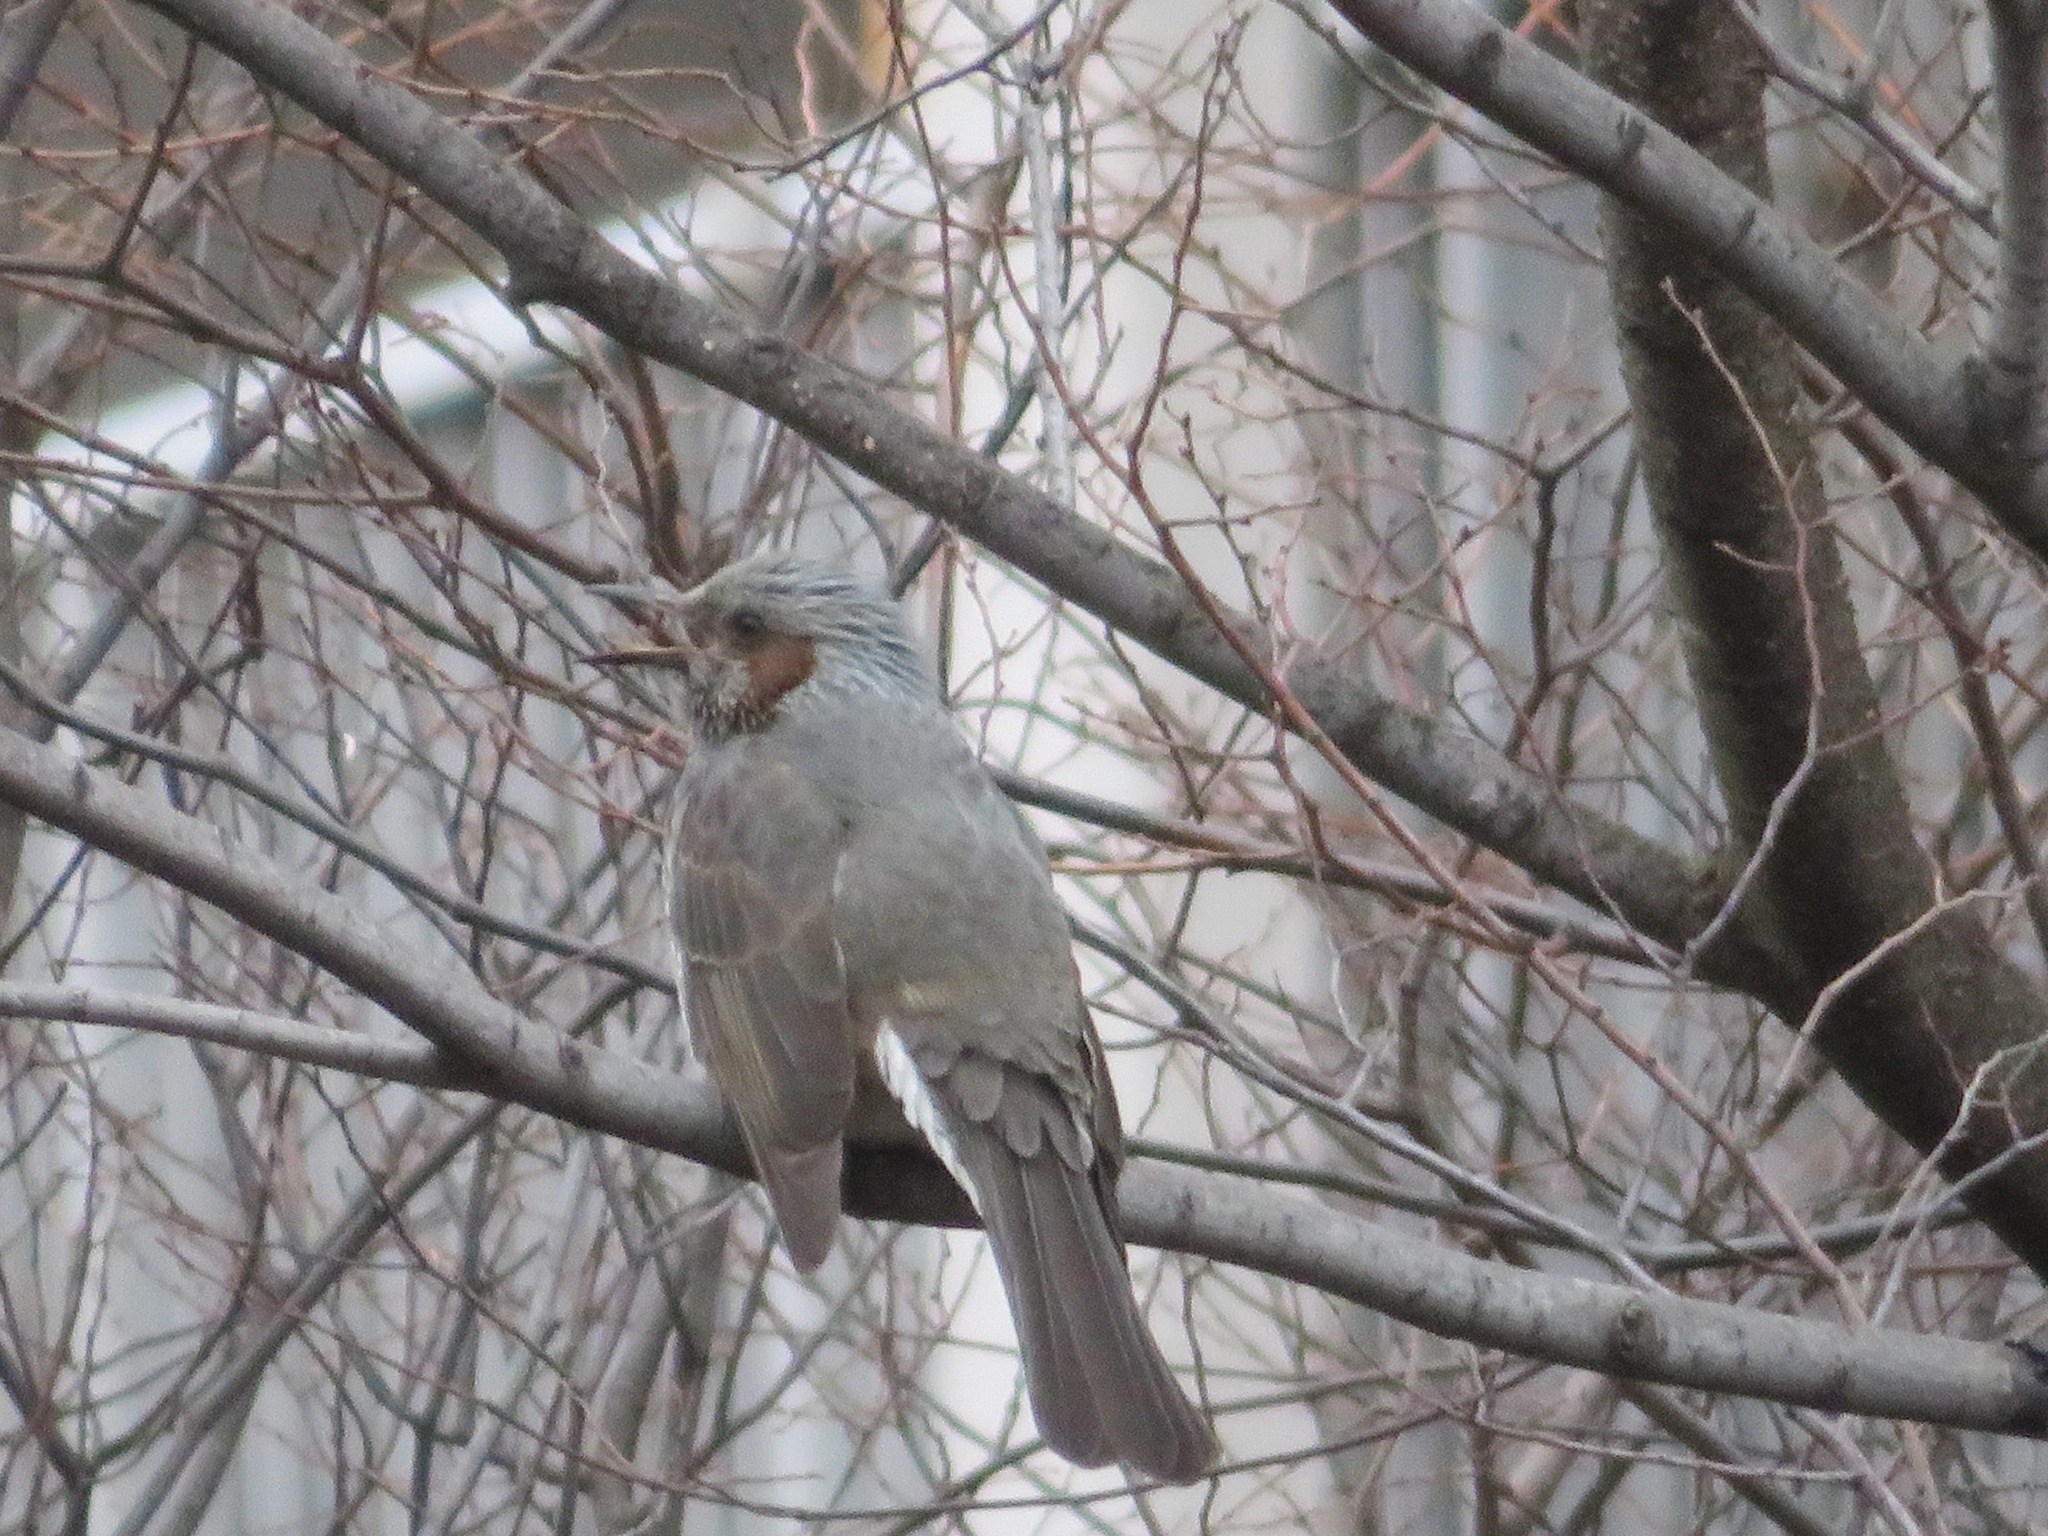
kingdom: Animalia
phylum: Chordata
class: Aves
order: Passeriformes
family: Pycnonotidae
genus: Hypsipetes
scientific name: Hypsipetes amaurotis
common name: Brown-eared bulbul
